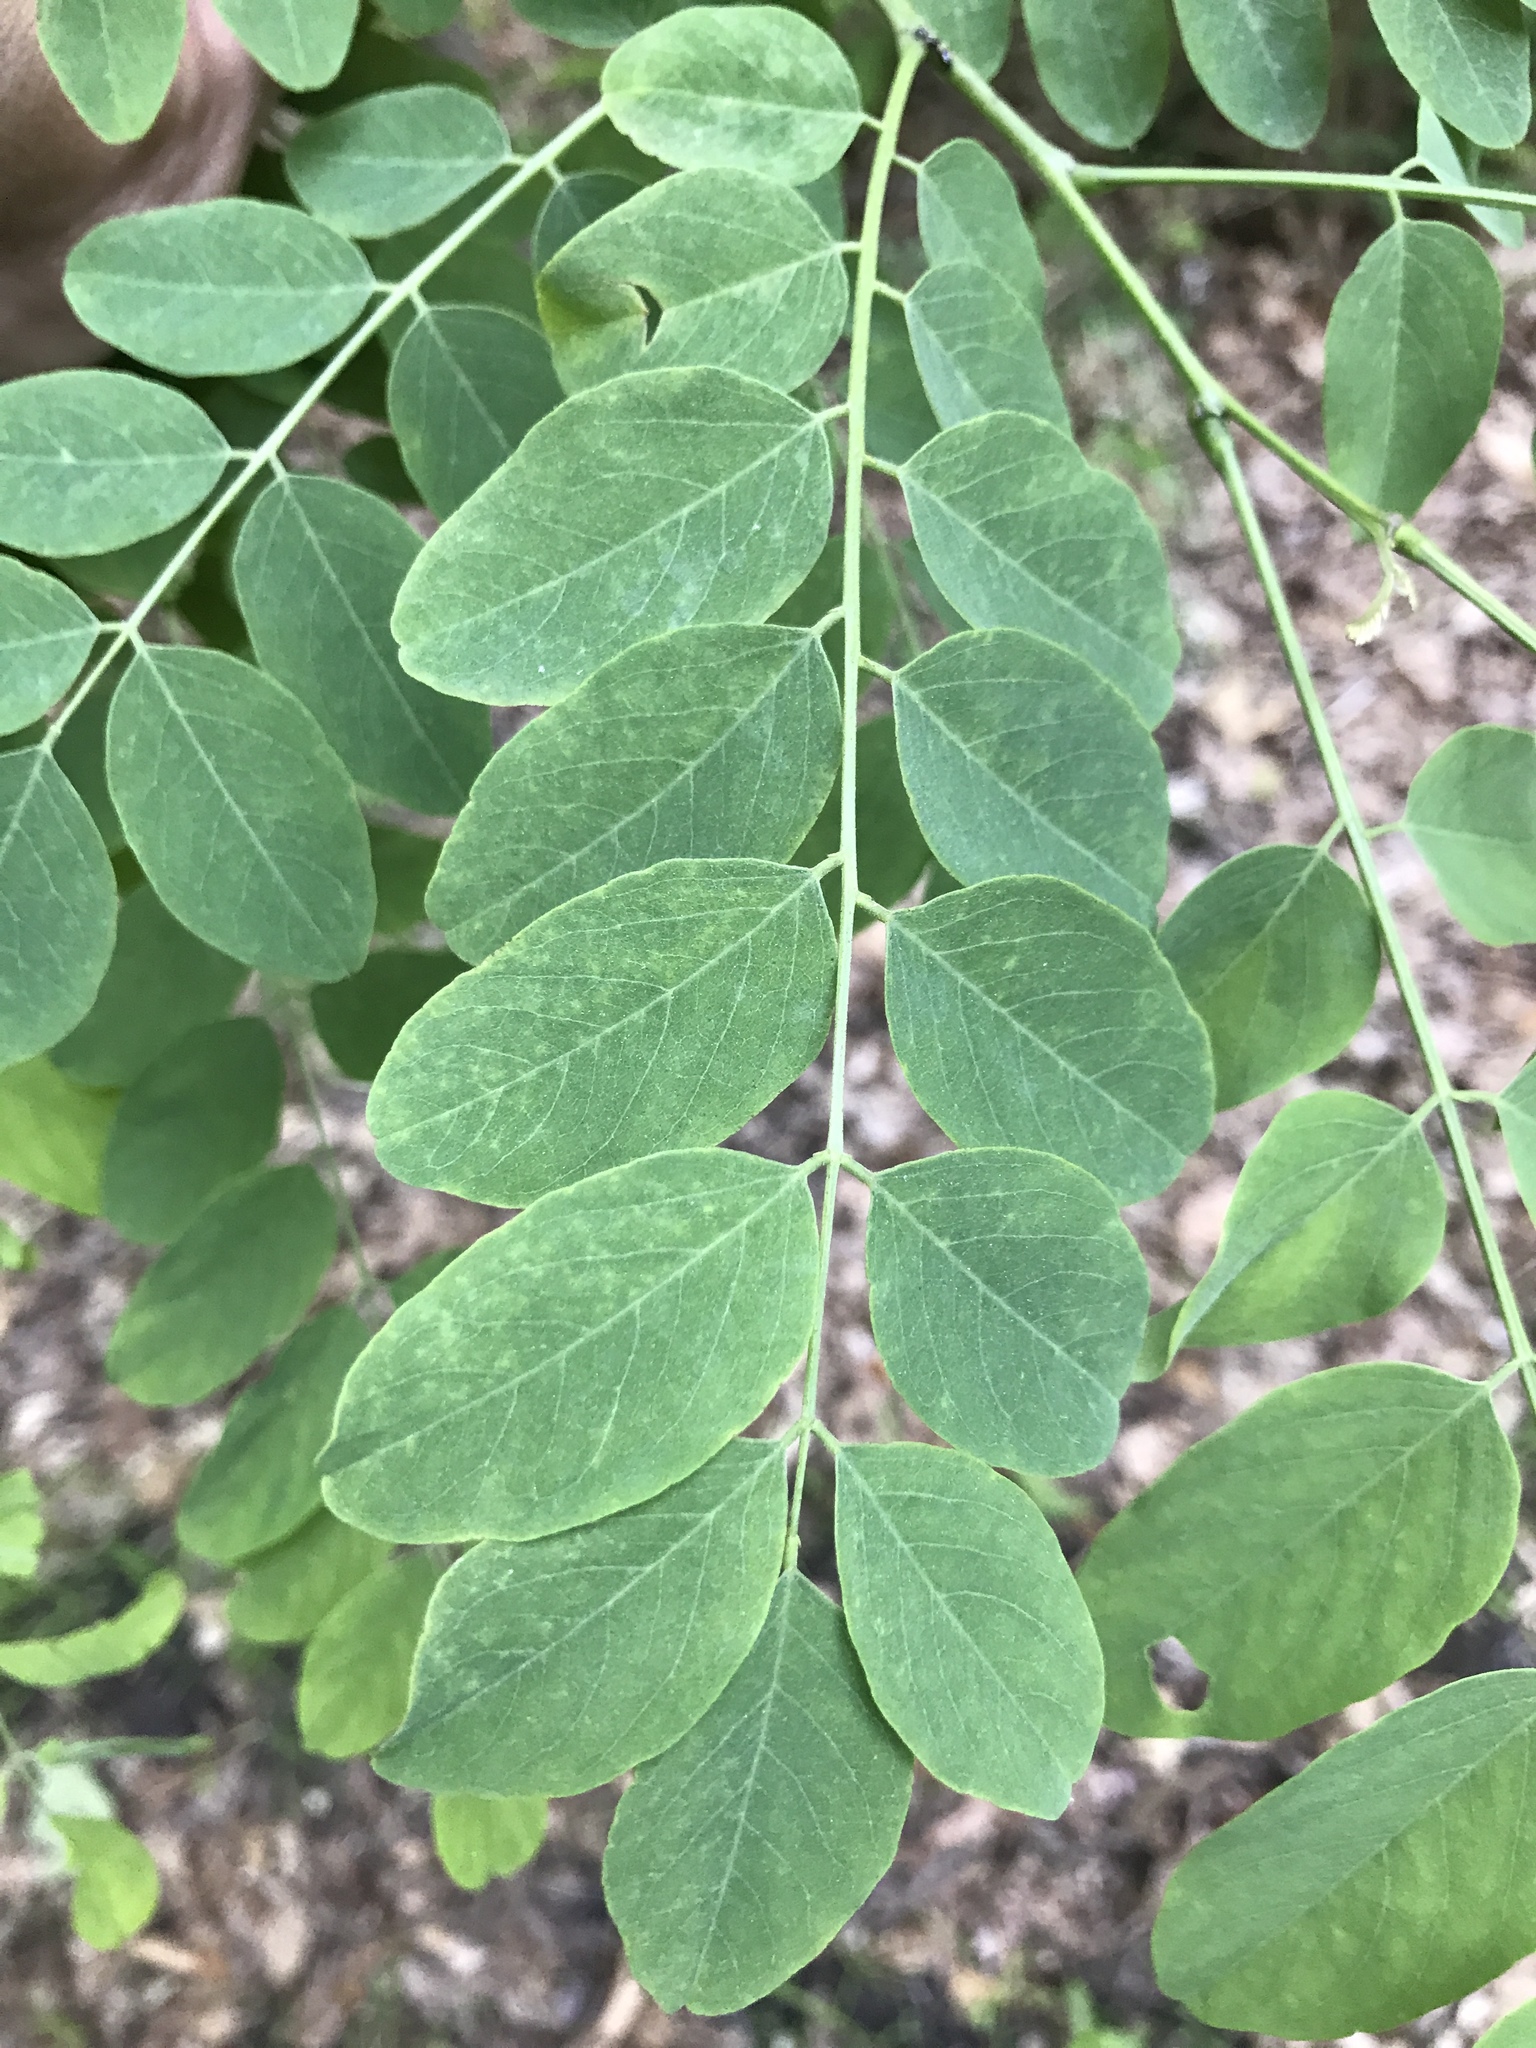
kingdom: Plantae
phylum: Tracheophyta
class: Magnoliopsida
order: Fabales
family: Fabaceae
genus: Robinia
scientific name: Robinia pseudoacacia
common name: Black locust
